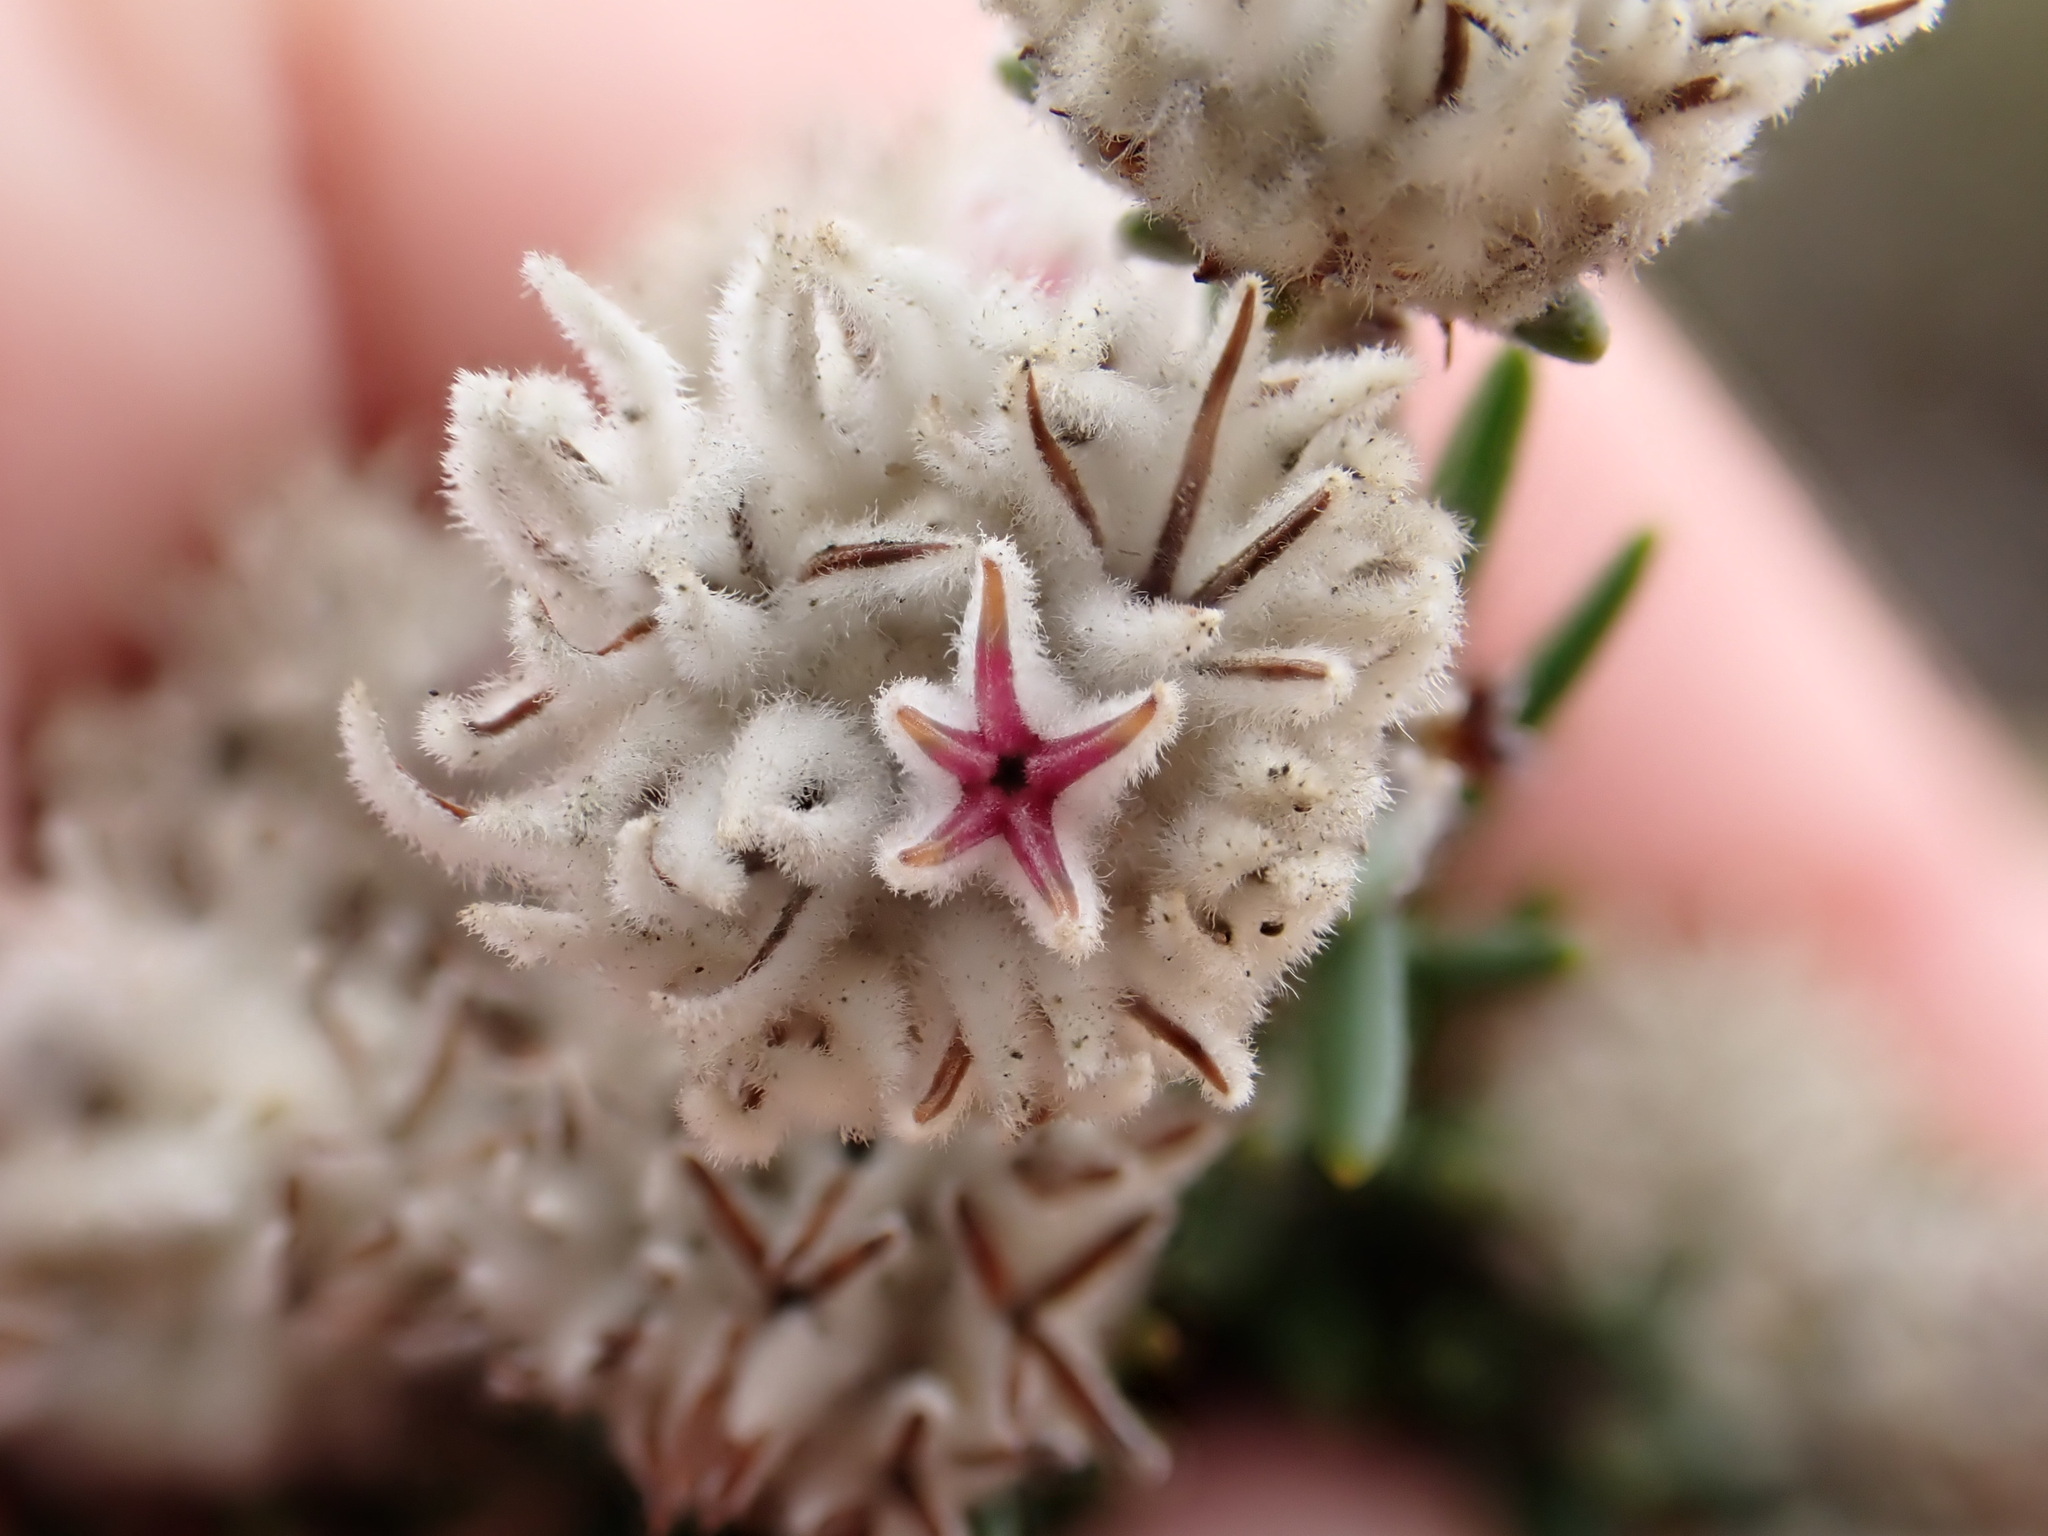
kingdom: Plantae
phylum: Tracheophyta
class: Magnoliopsida
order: Rosales
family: Rhamnaceae
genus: Trichocephalus
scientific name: Trichocephalus stipularis
